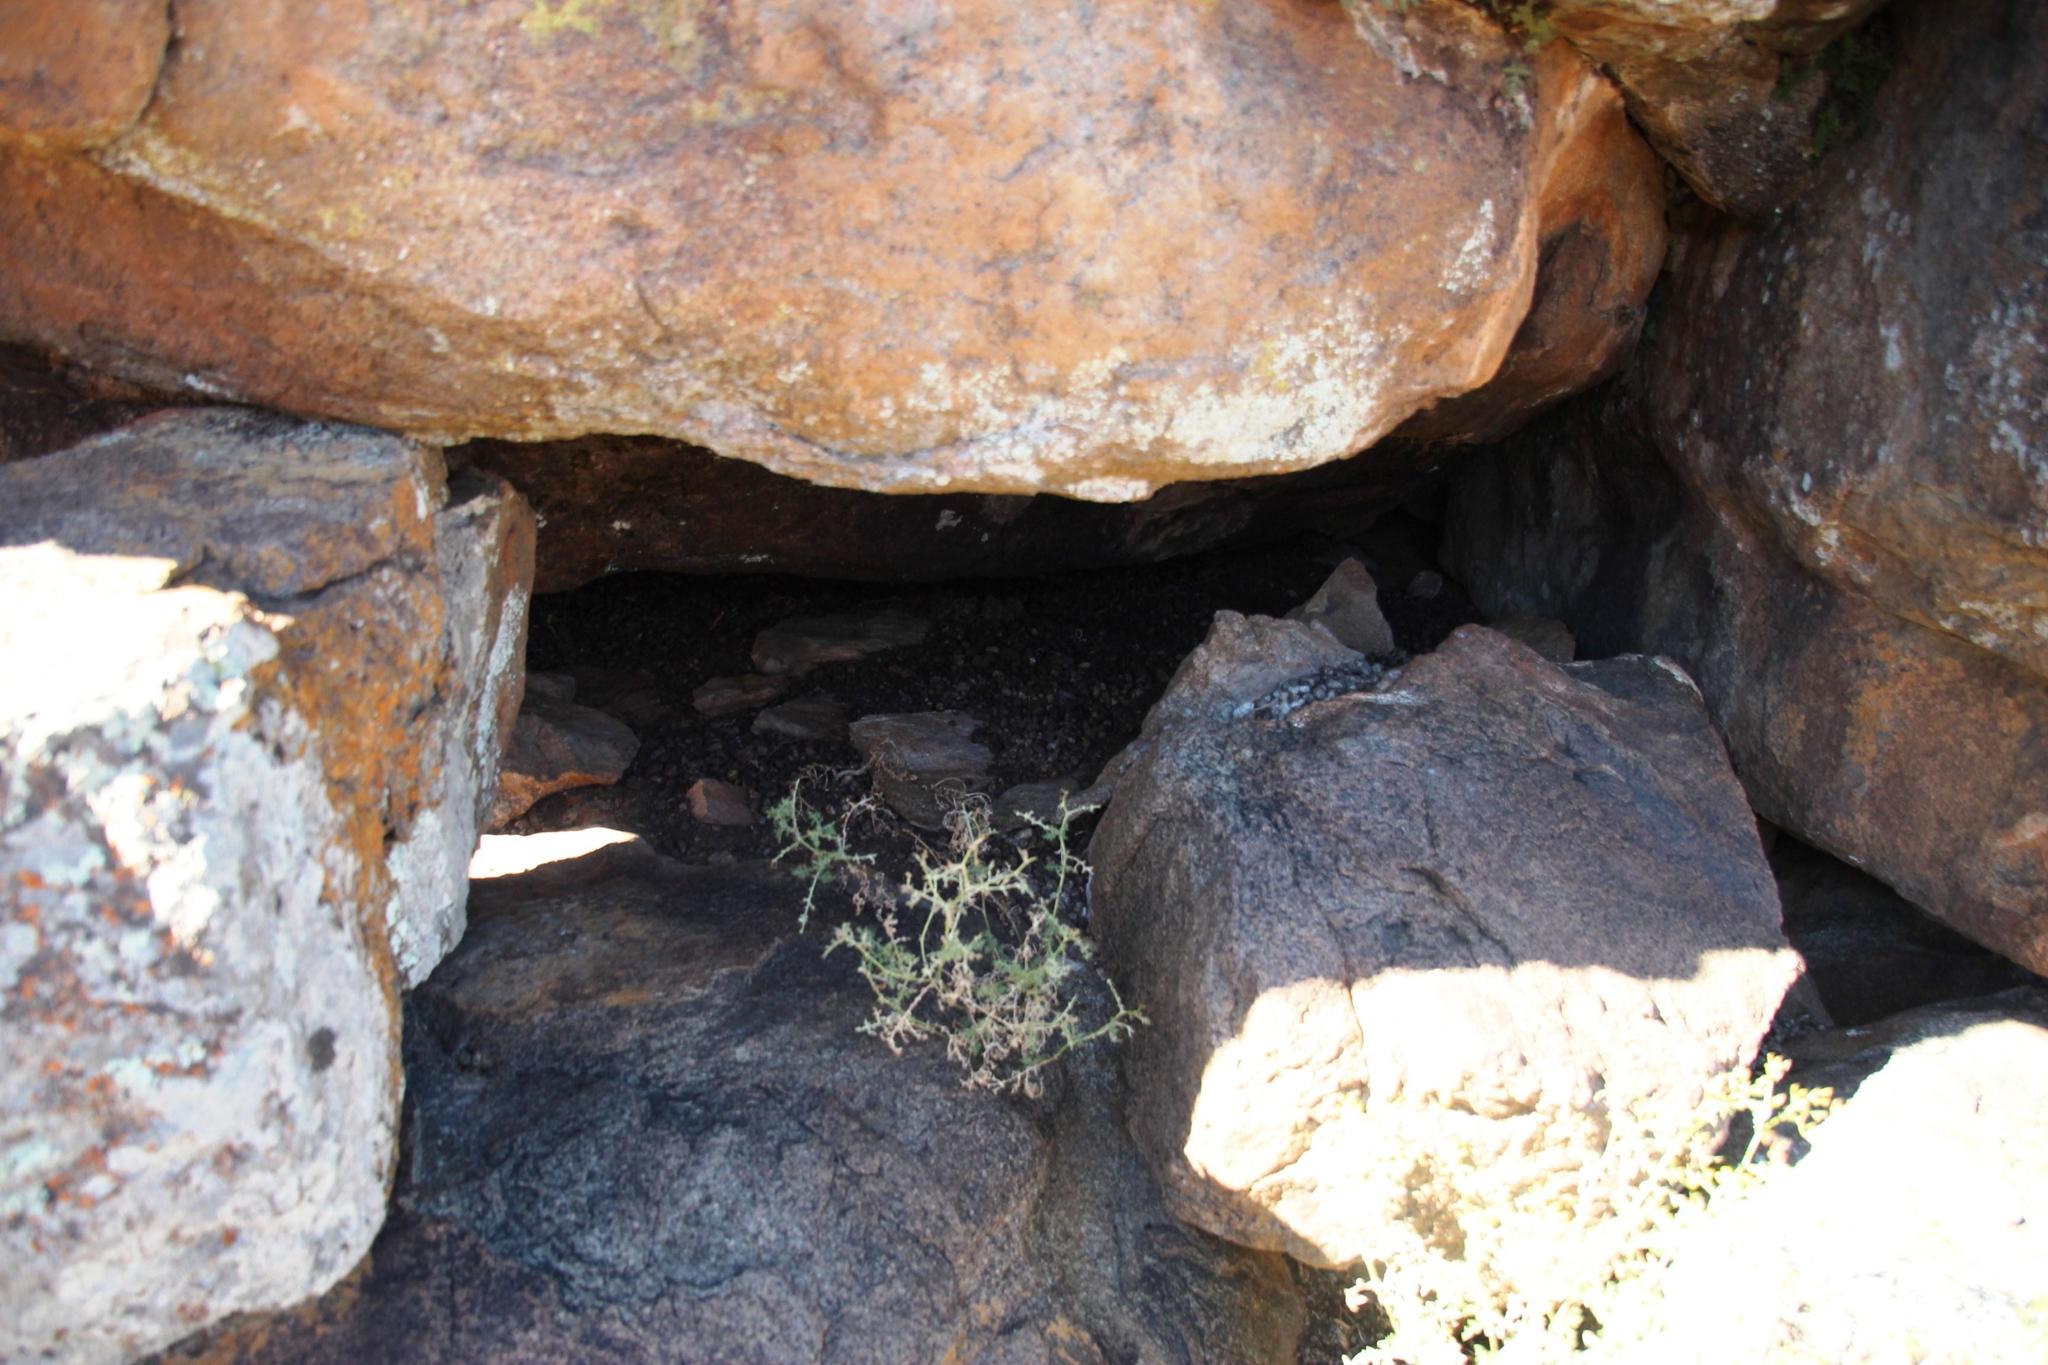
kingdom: Animalia
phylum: Chordata
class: Mammalia
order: Hyracoidea
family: Procaviidae
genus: Procavia
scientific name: Procavia capensis
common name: Rock hyrax
